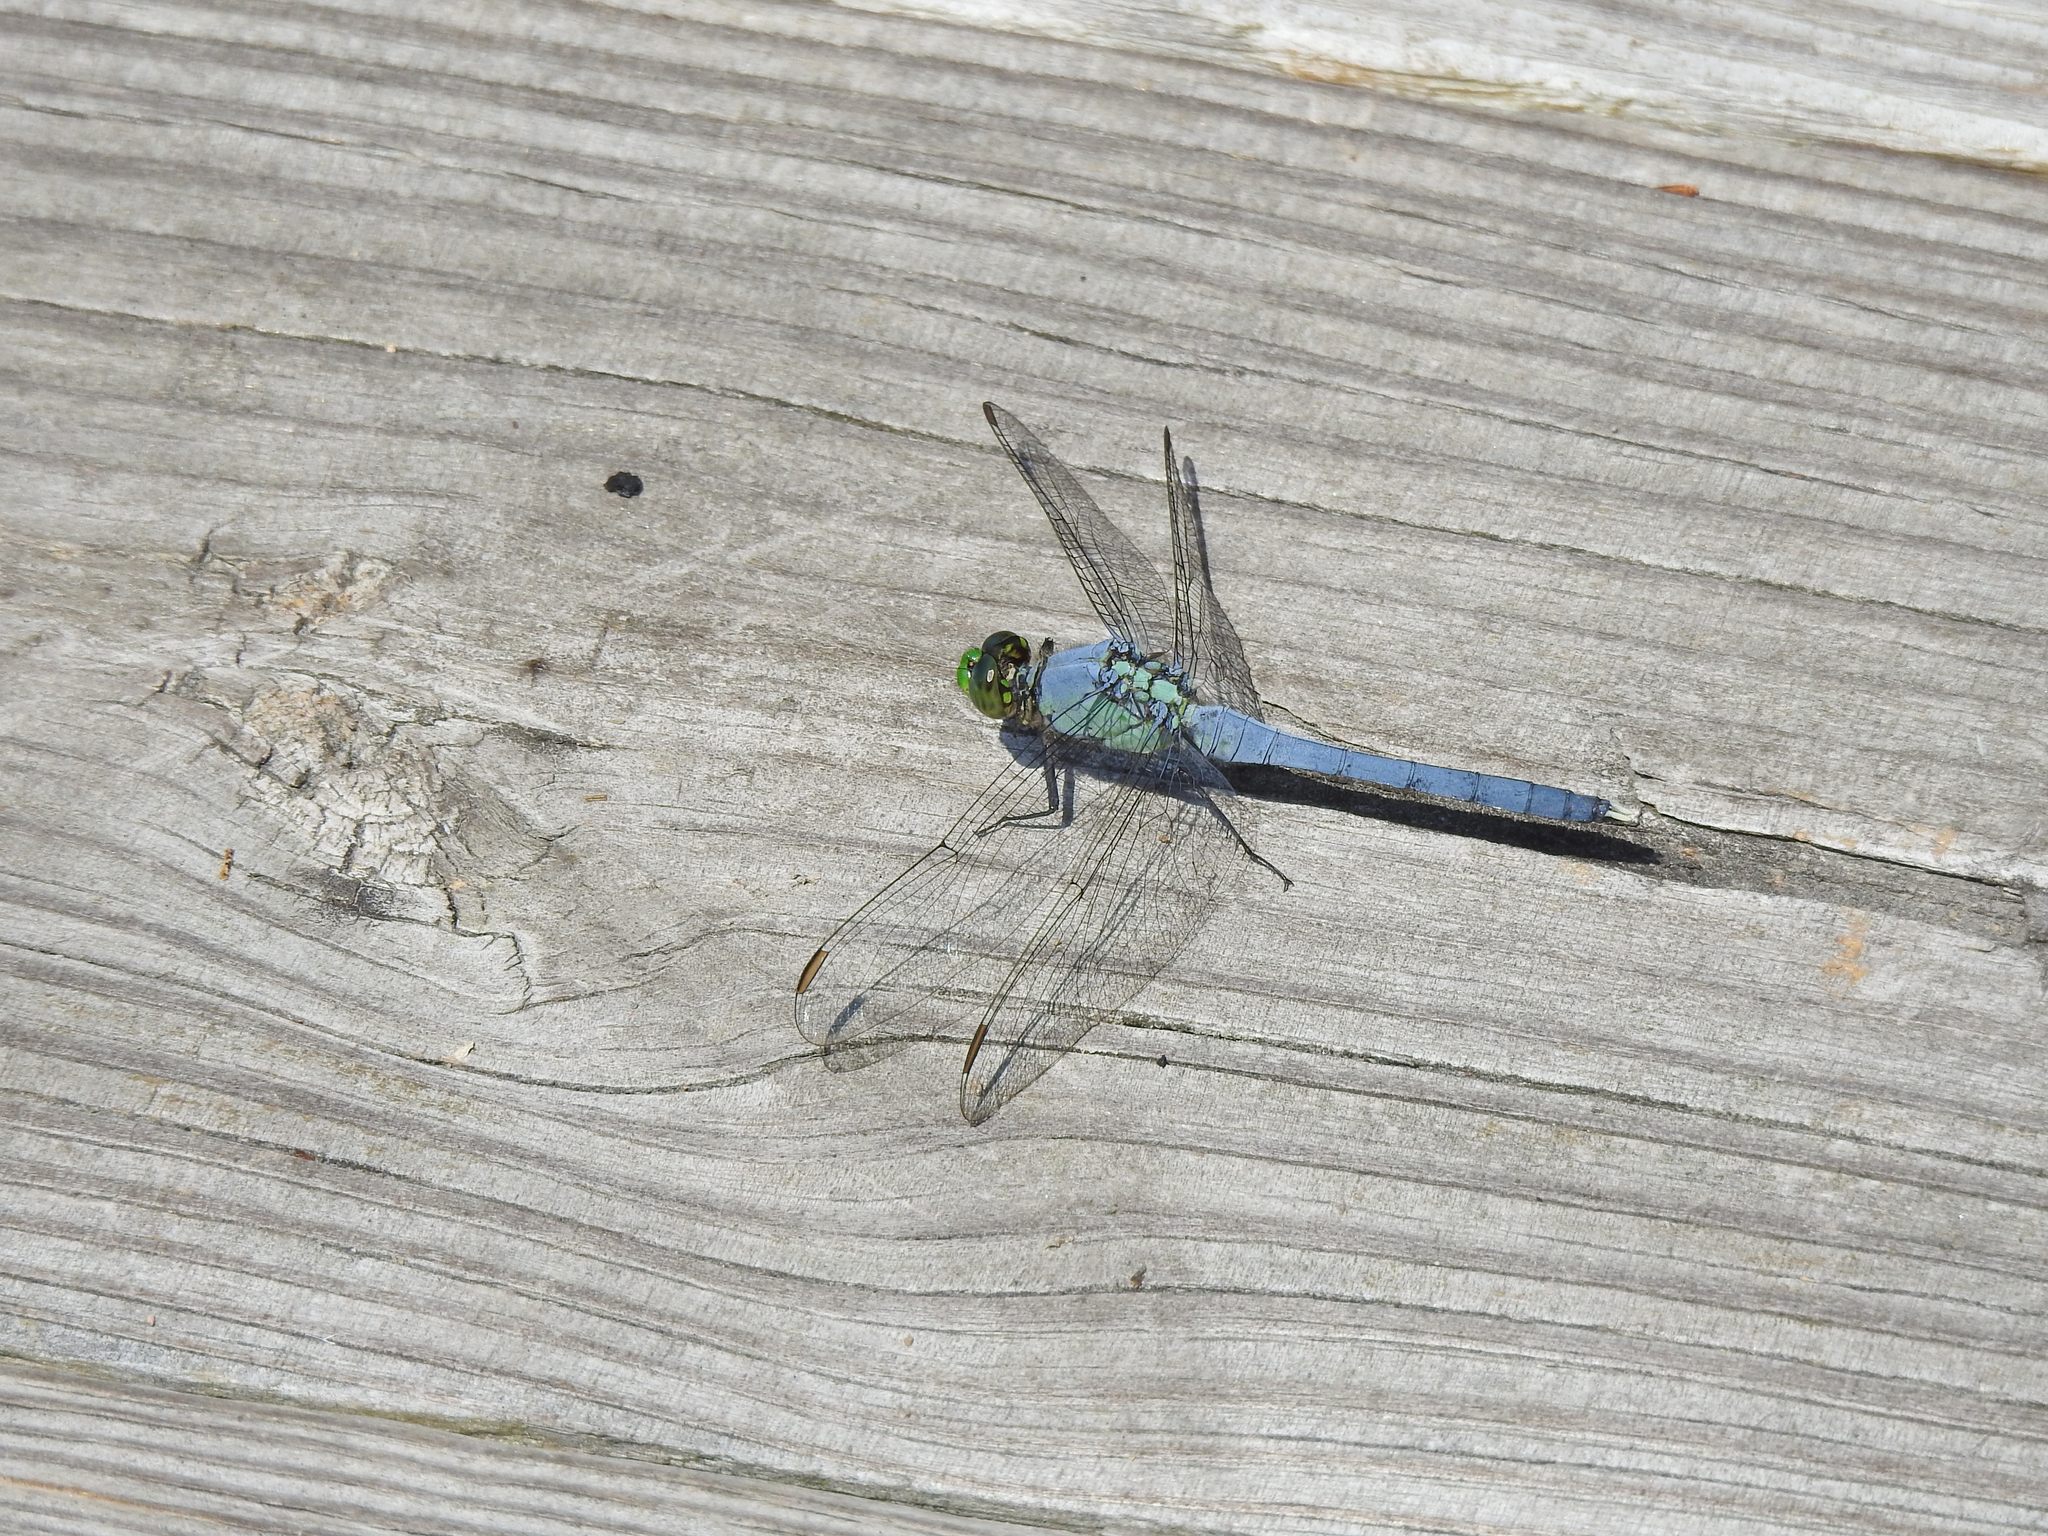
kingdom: Animalia
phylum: Arthropoda
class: Insecta
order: Odonata
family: Libellulidae
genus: Erythemis
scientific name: Erythemis simplicicollis
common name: Eastern pondhawk
